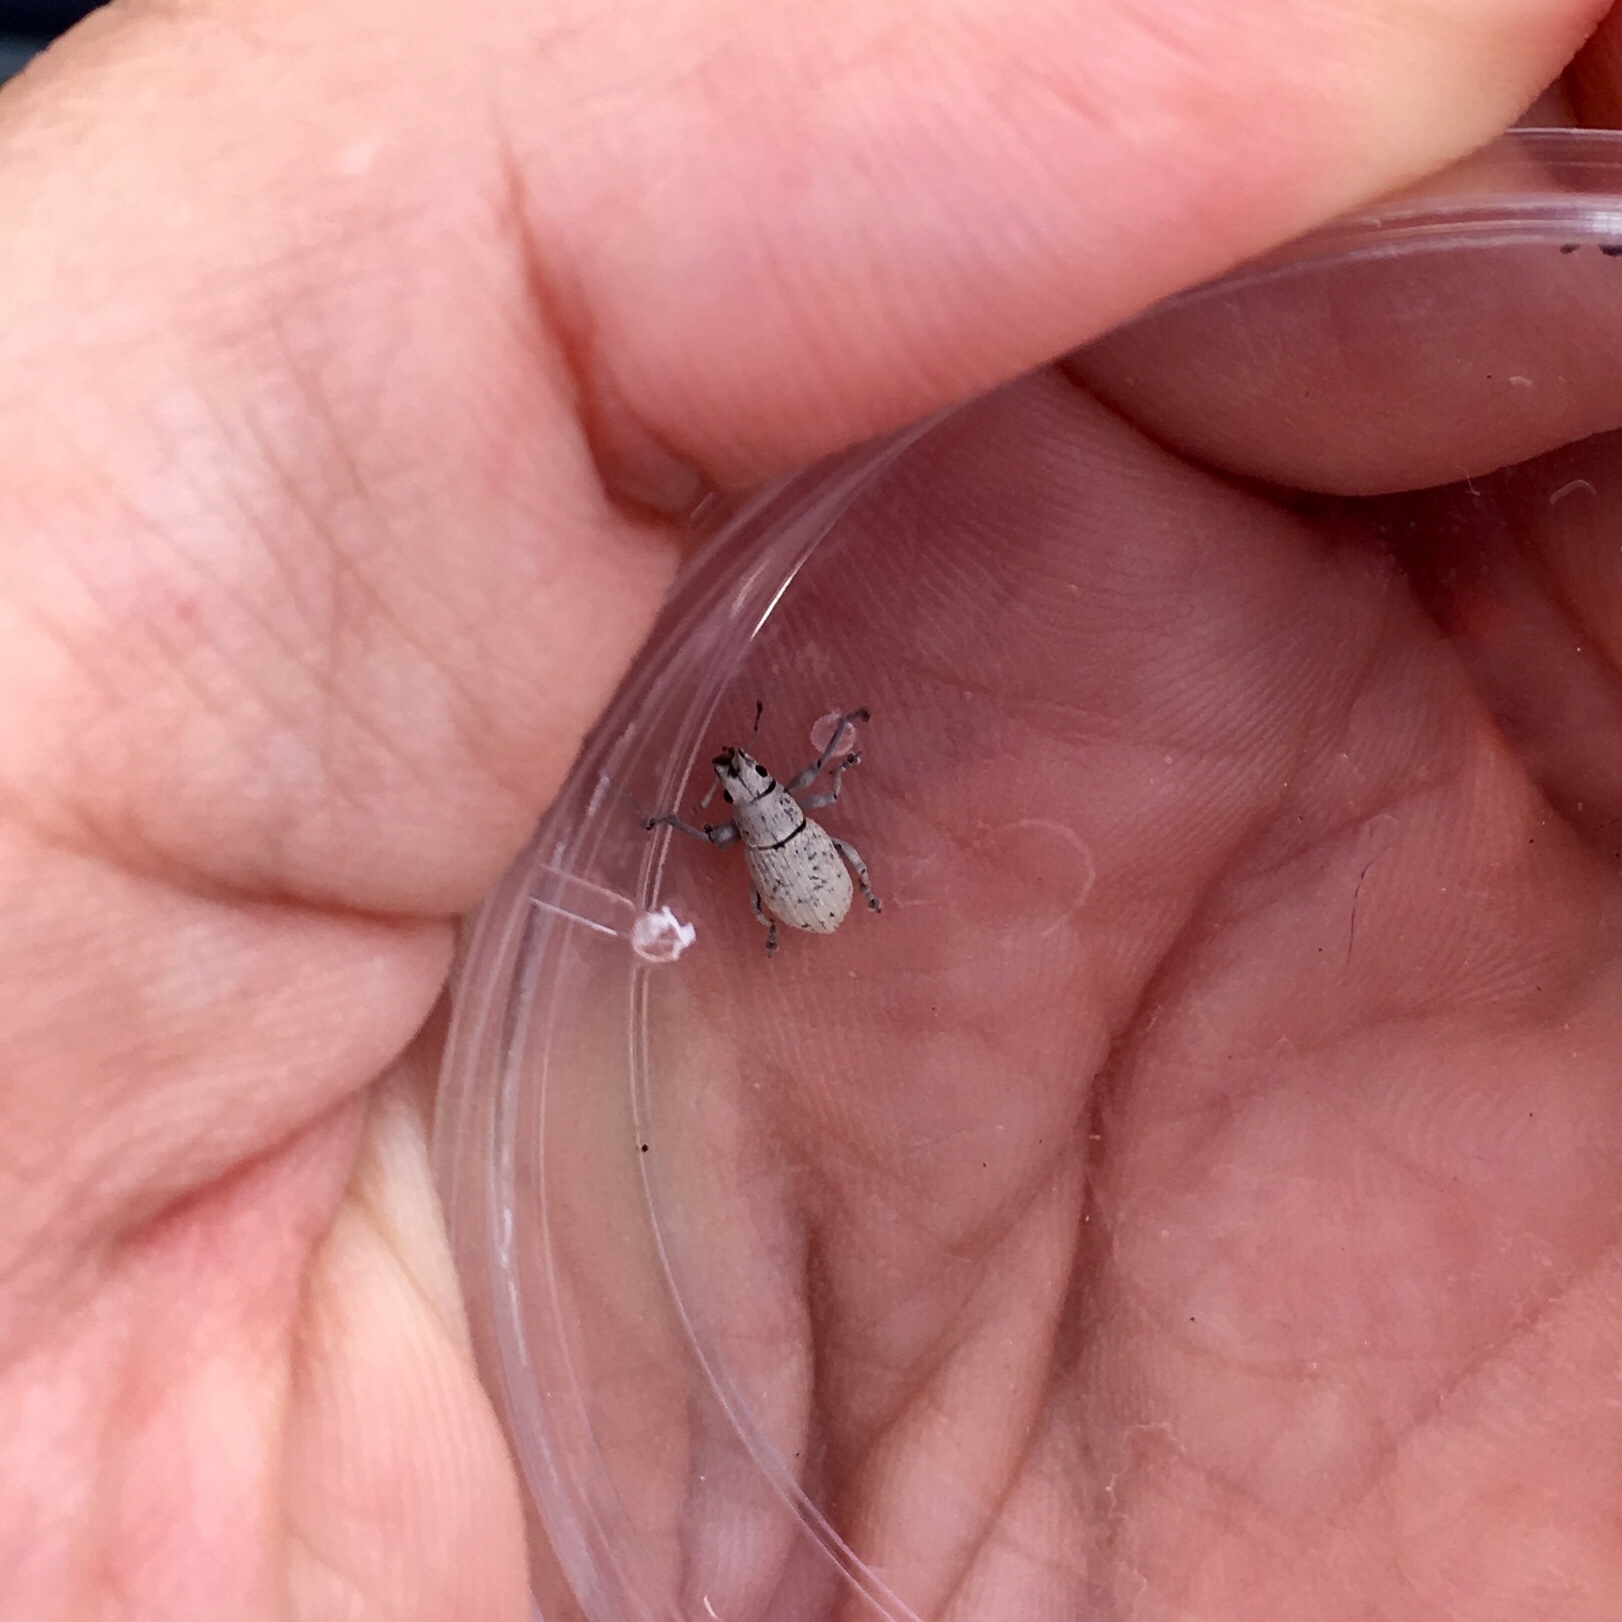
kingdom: Animalia
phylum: Arthropoda
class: Insecta
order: Coleoptera
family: Curculionidae
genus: Artipus
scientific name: Artipus floridanus
